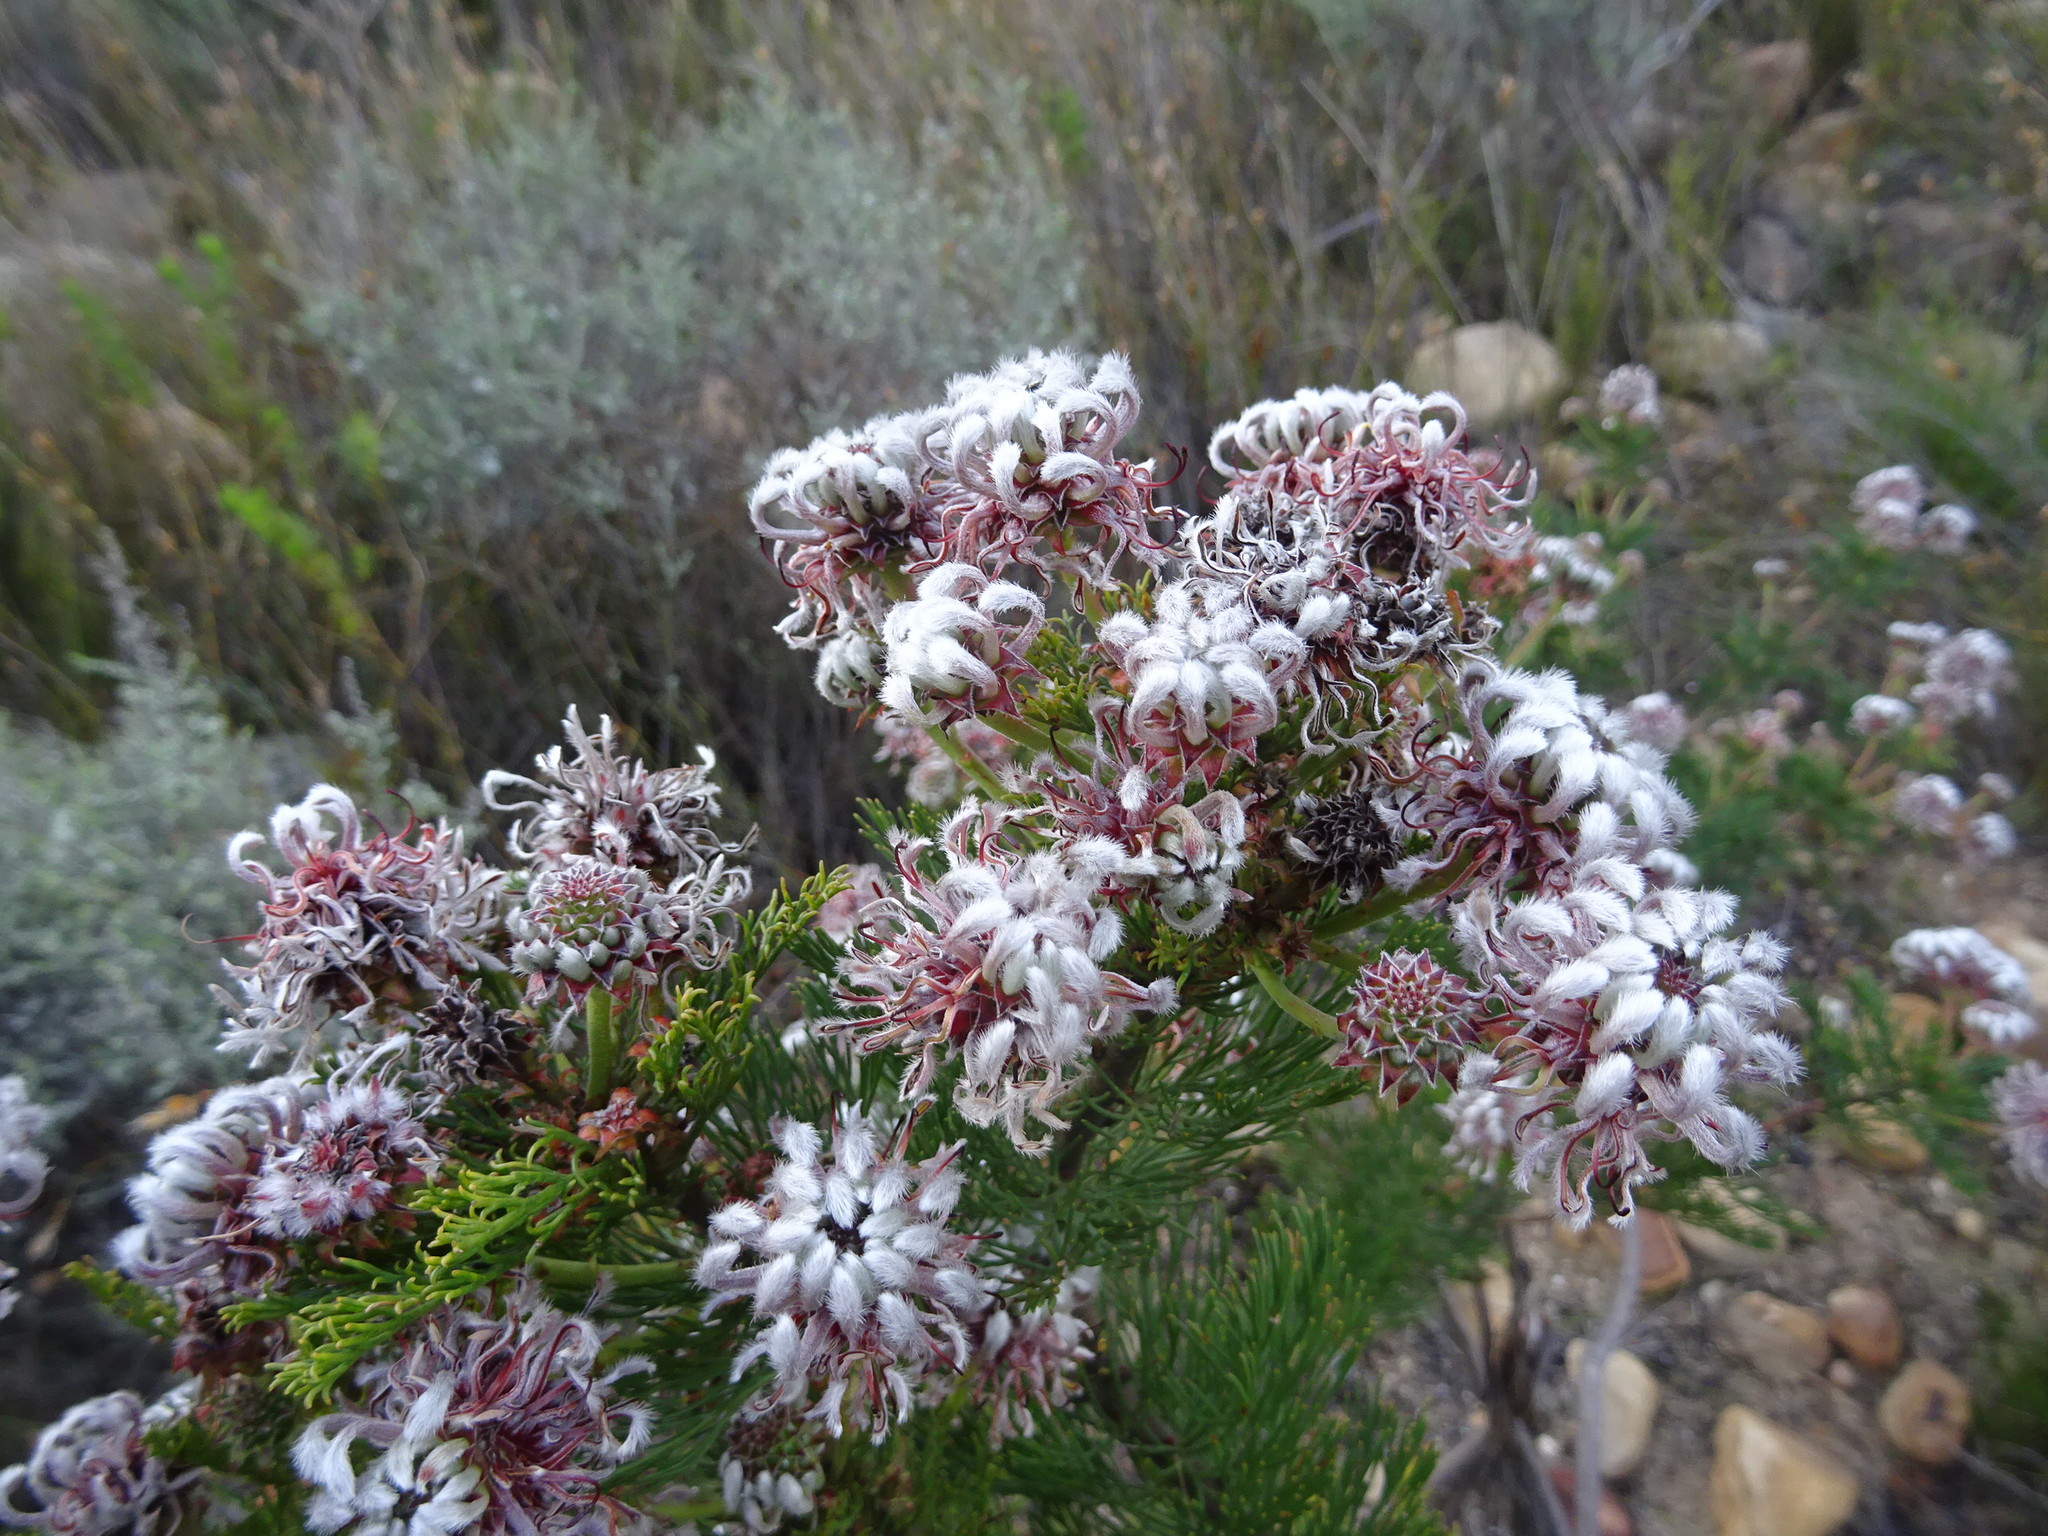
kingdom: Plantae
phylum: Tracheophyta
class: Magnoliopsida
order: Proteales
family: Proteaceae
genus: Serruria
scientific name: Serruria acrocarpa
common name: Common rootstock spiderhead
